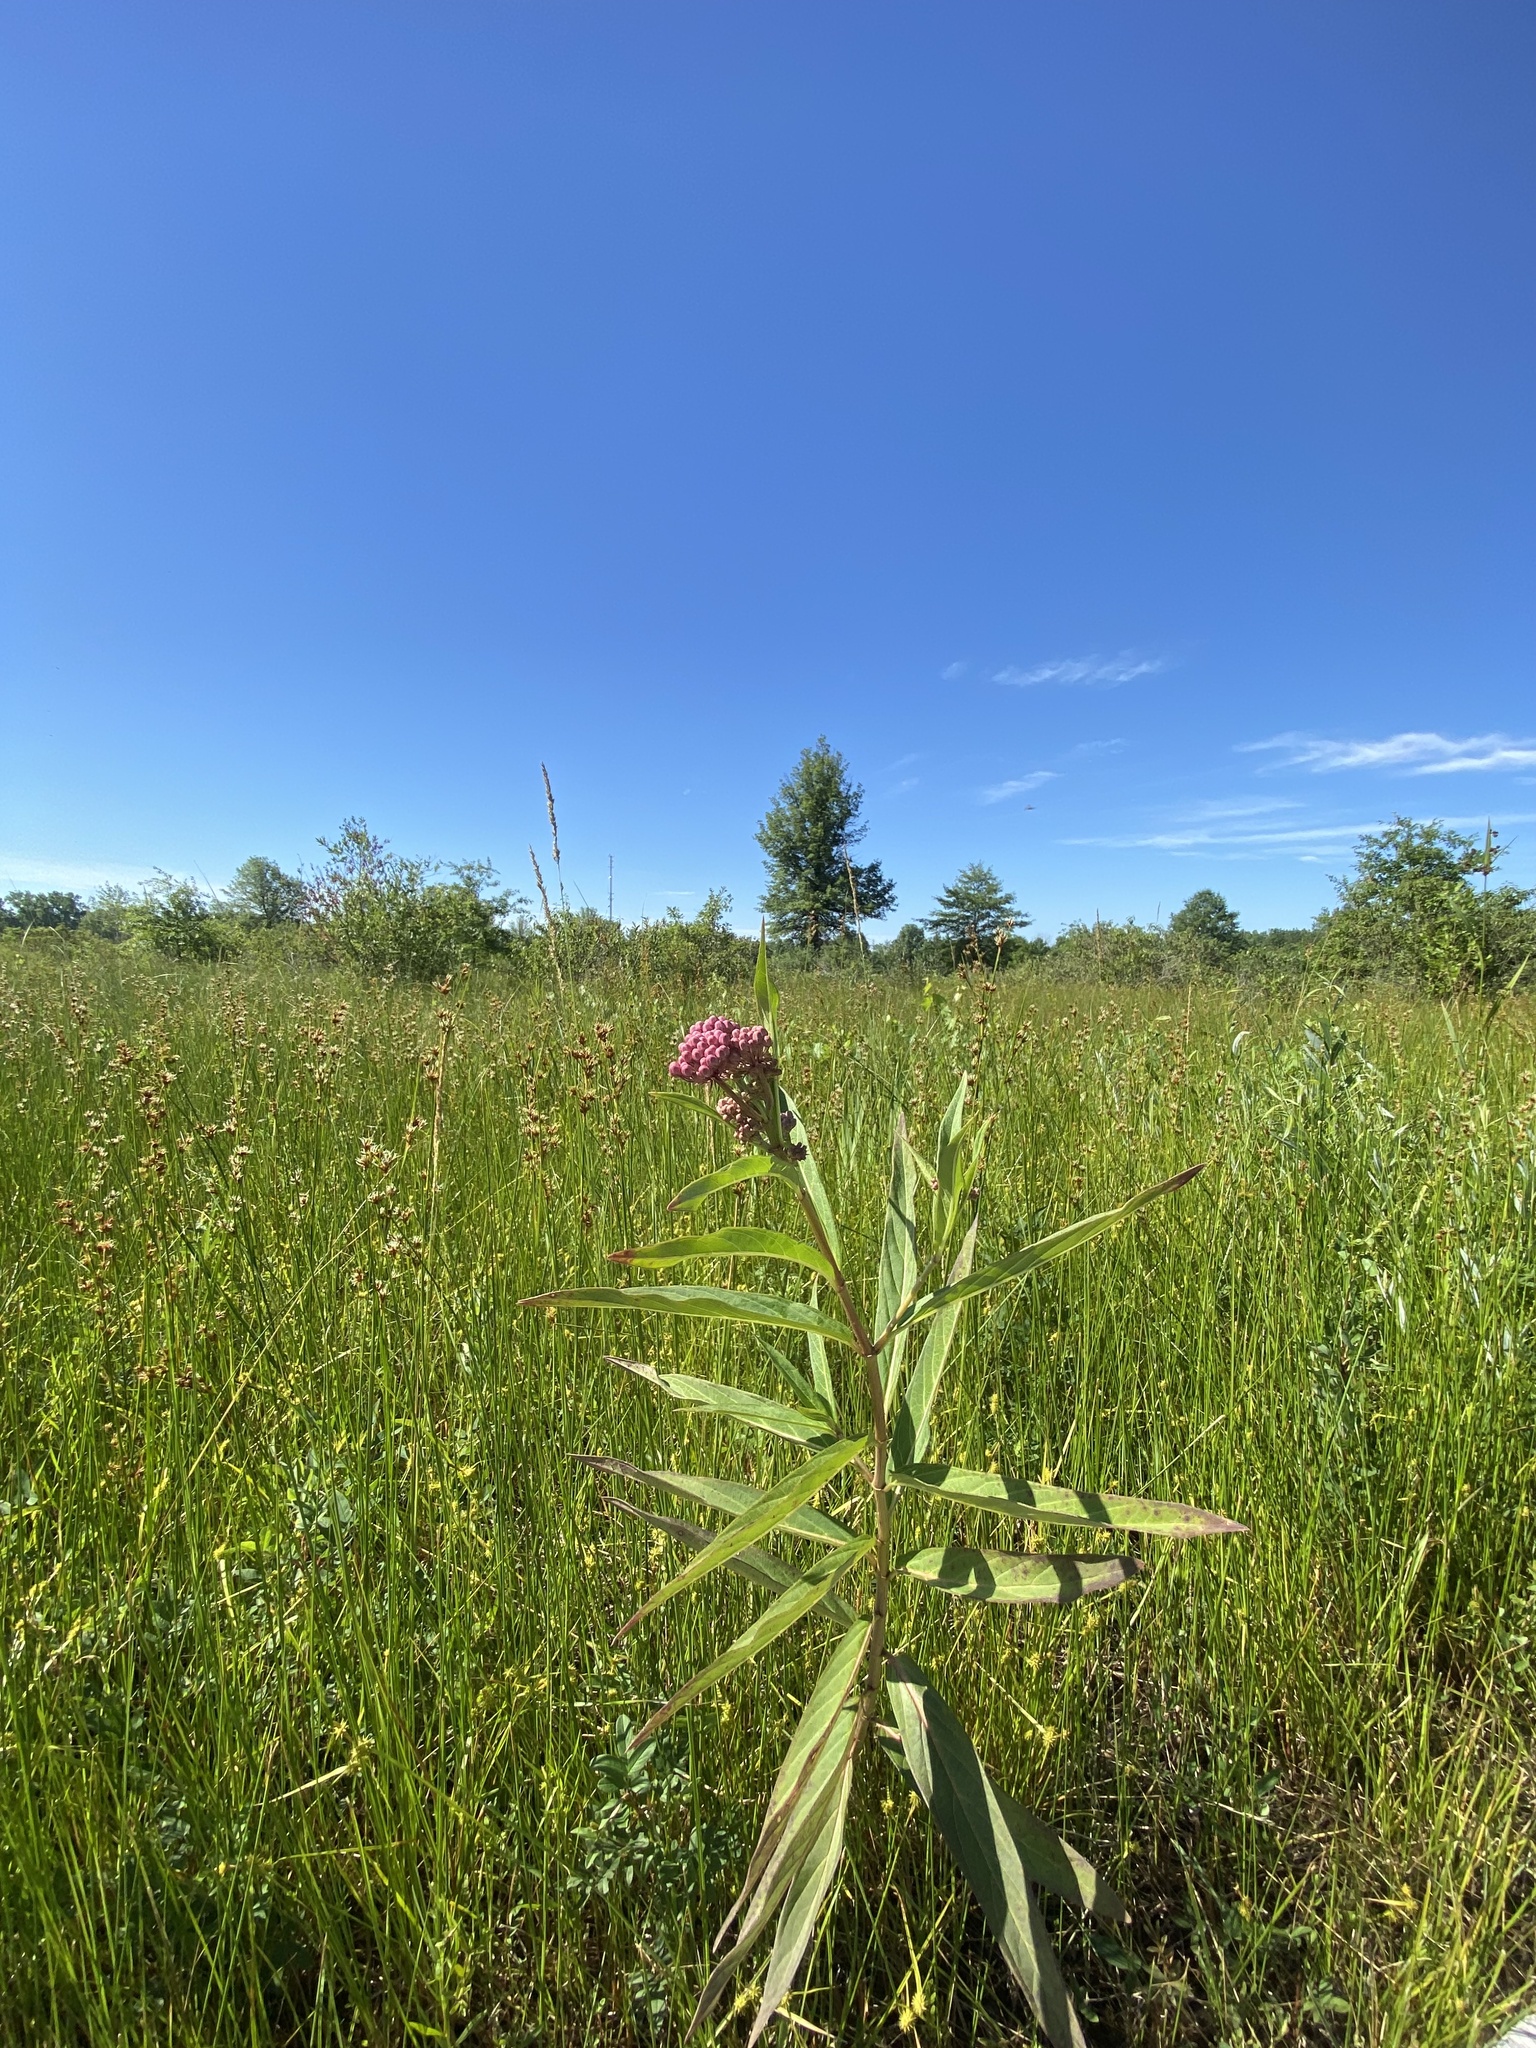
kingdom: Plantae
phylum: Tracheophyta
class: Magnoliopsida
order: Gentianales
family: Apocynaceae
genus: Asclepias
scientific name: Asclepias incarnata
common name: Swamp milkweed
